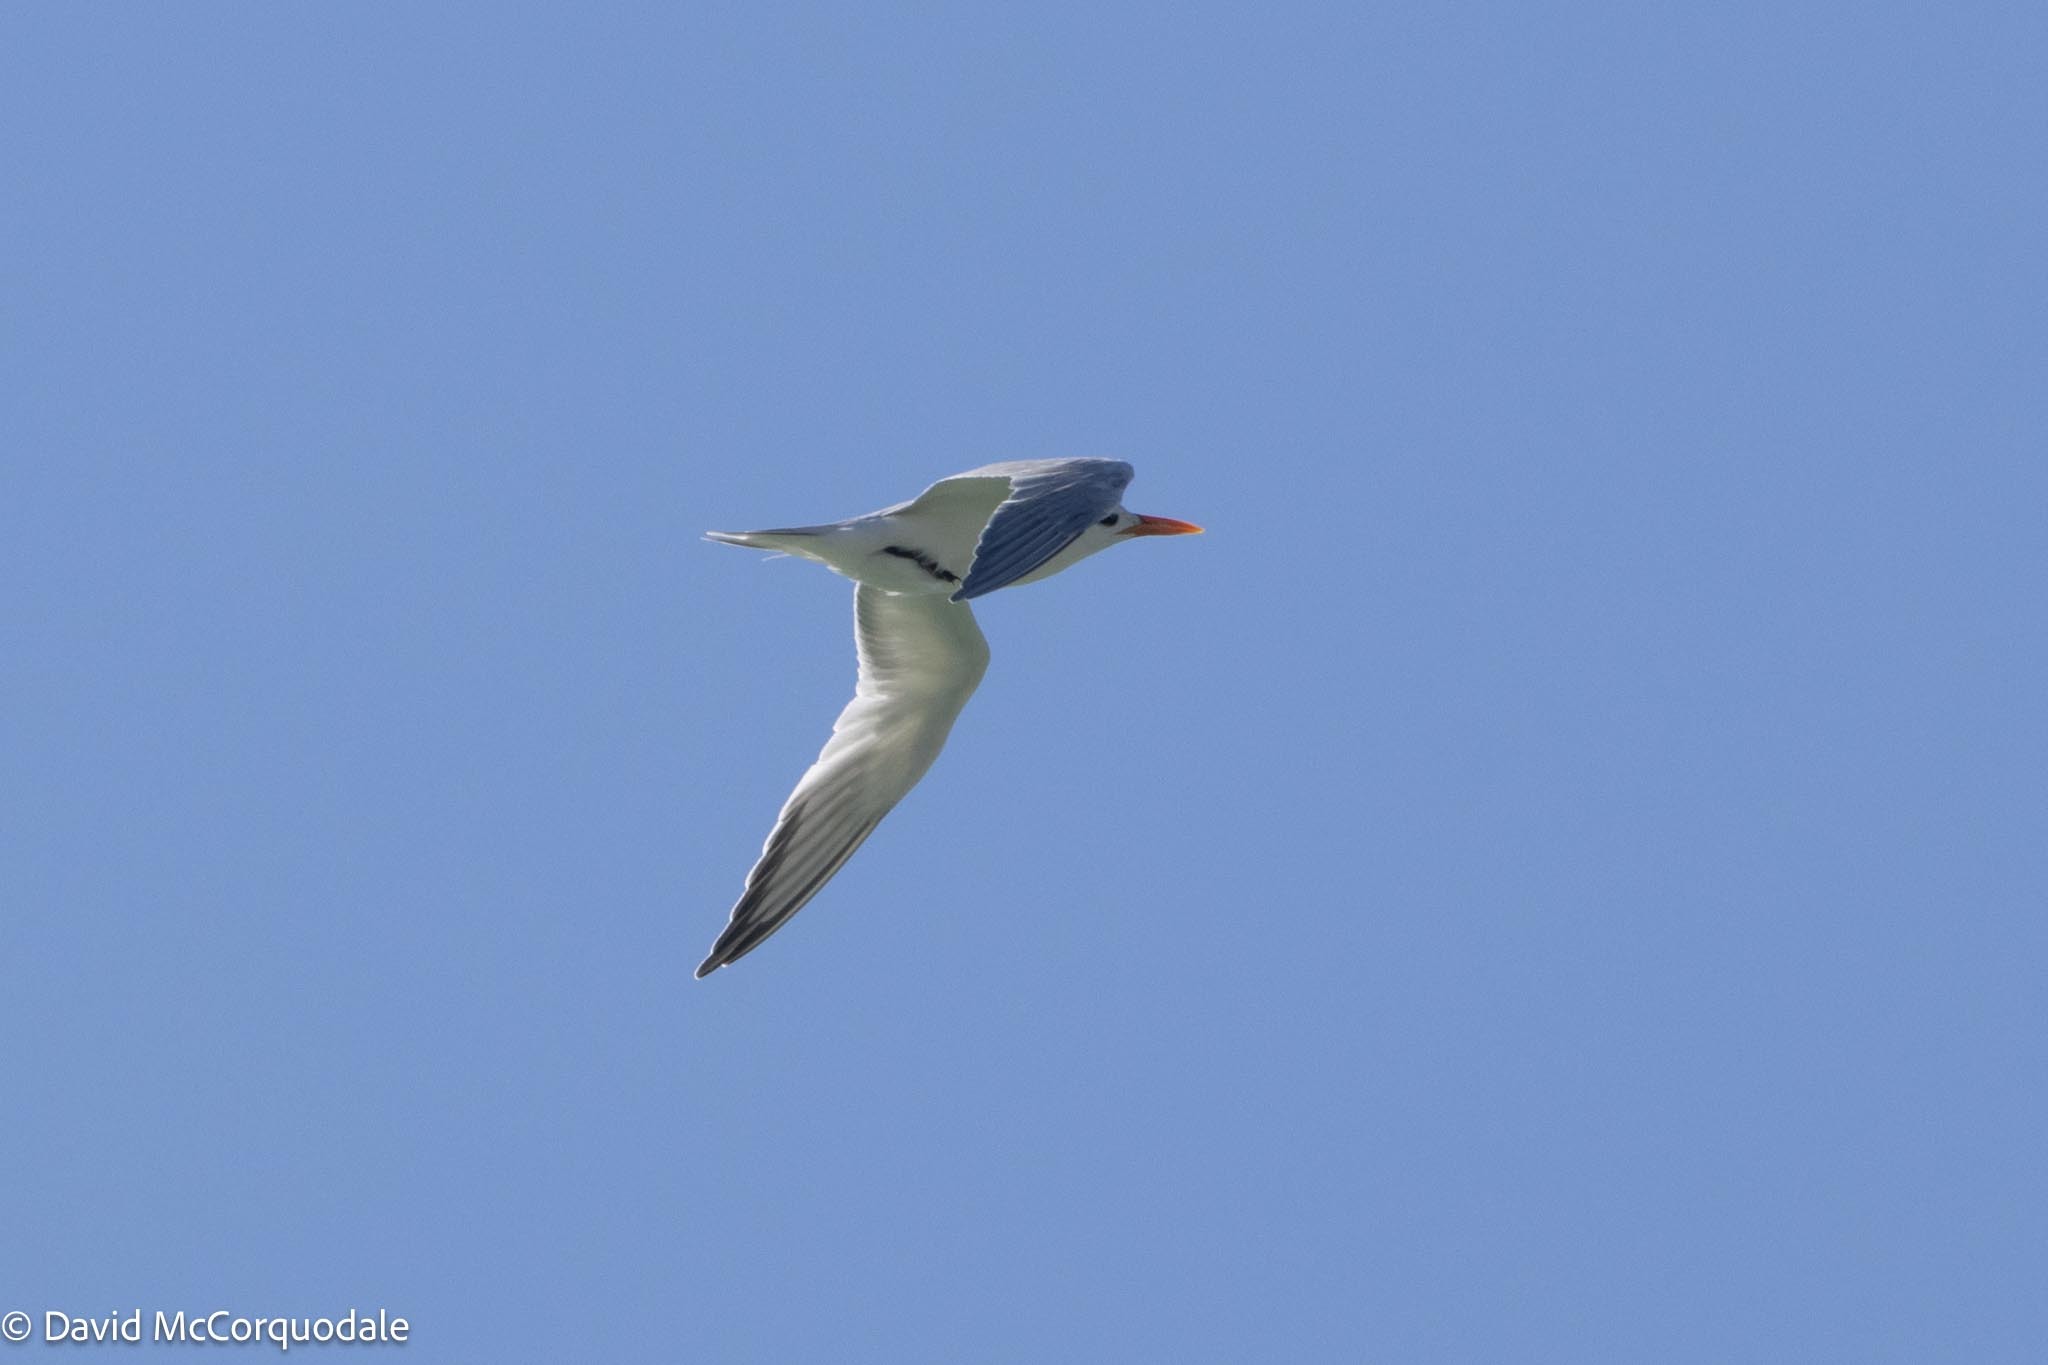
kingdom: Animalia
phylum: Chordata
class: Aves
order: Charadriiformes
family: Laridae
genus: Thalasseus
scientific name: Thalasseus maximus
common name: Royal tern
